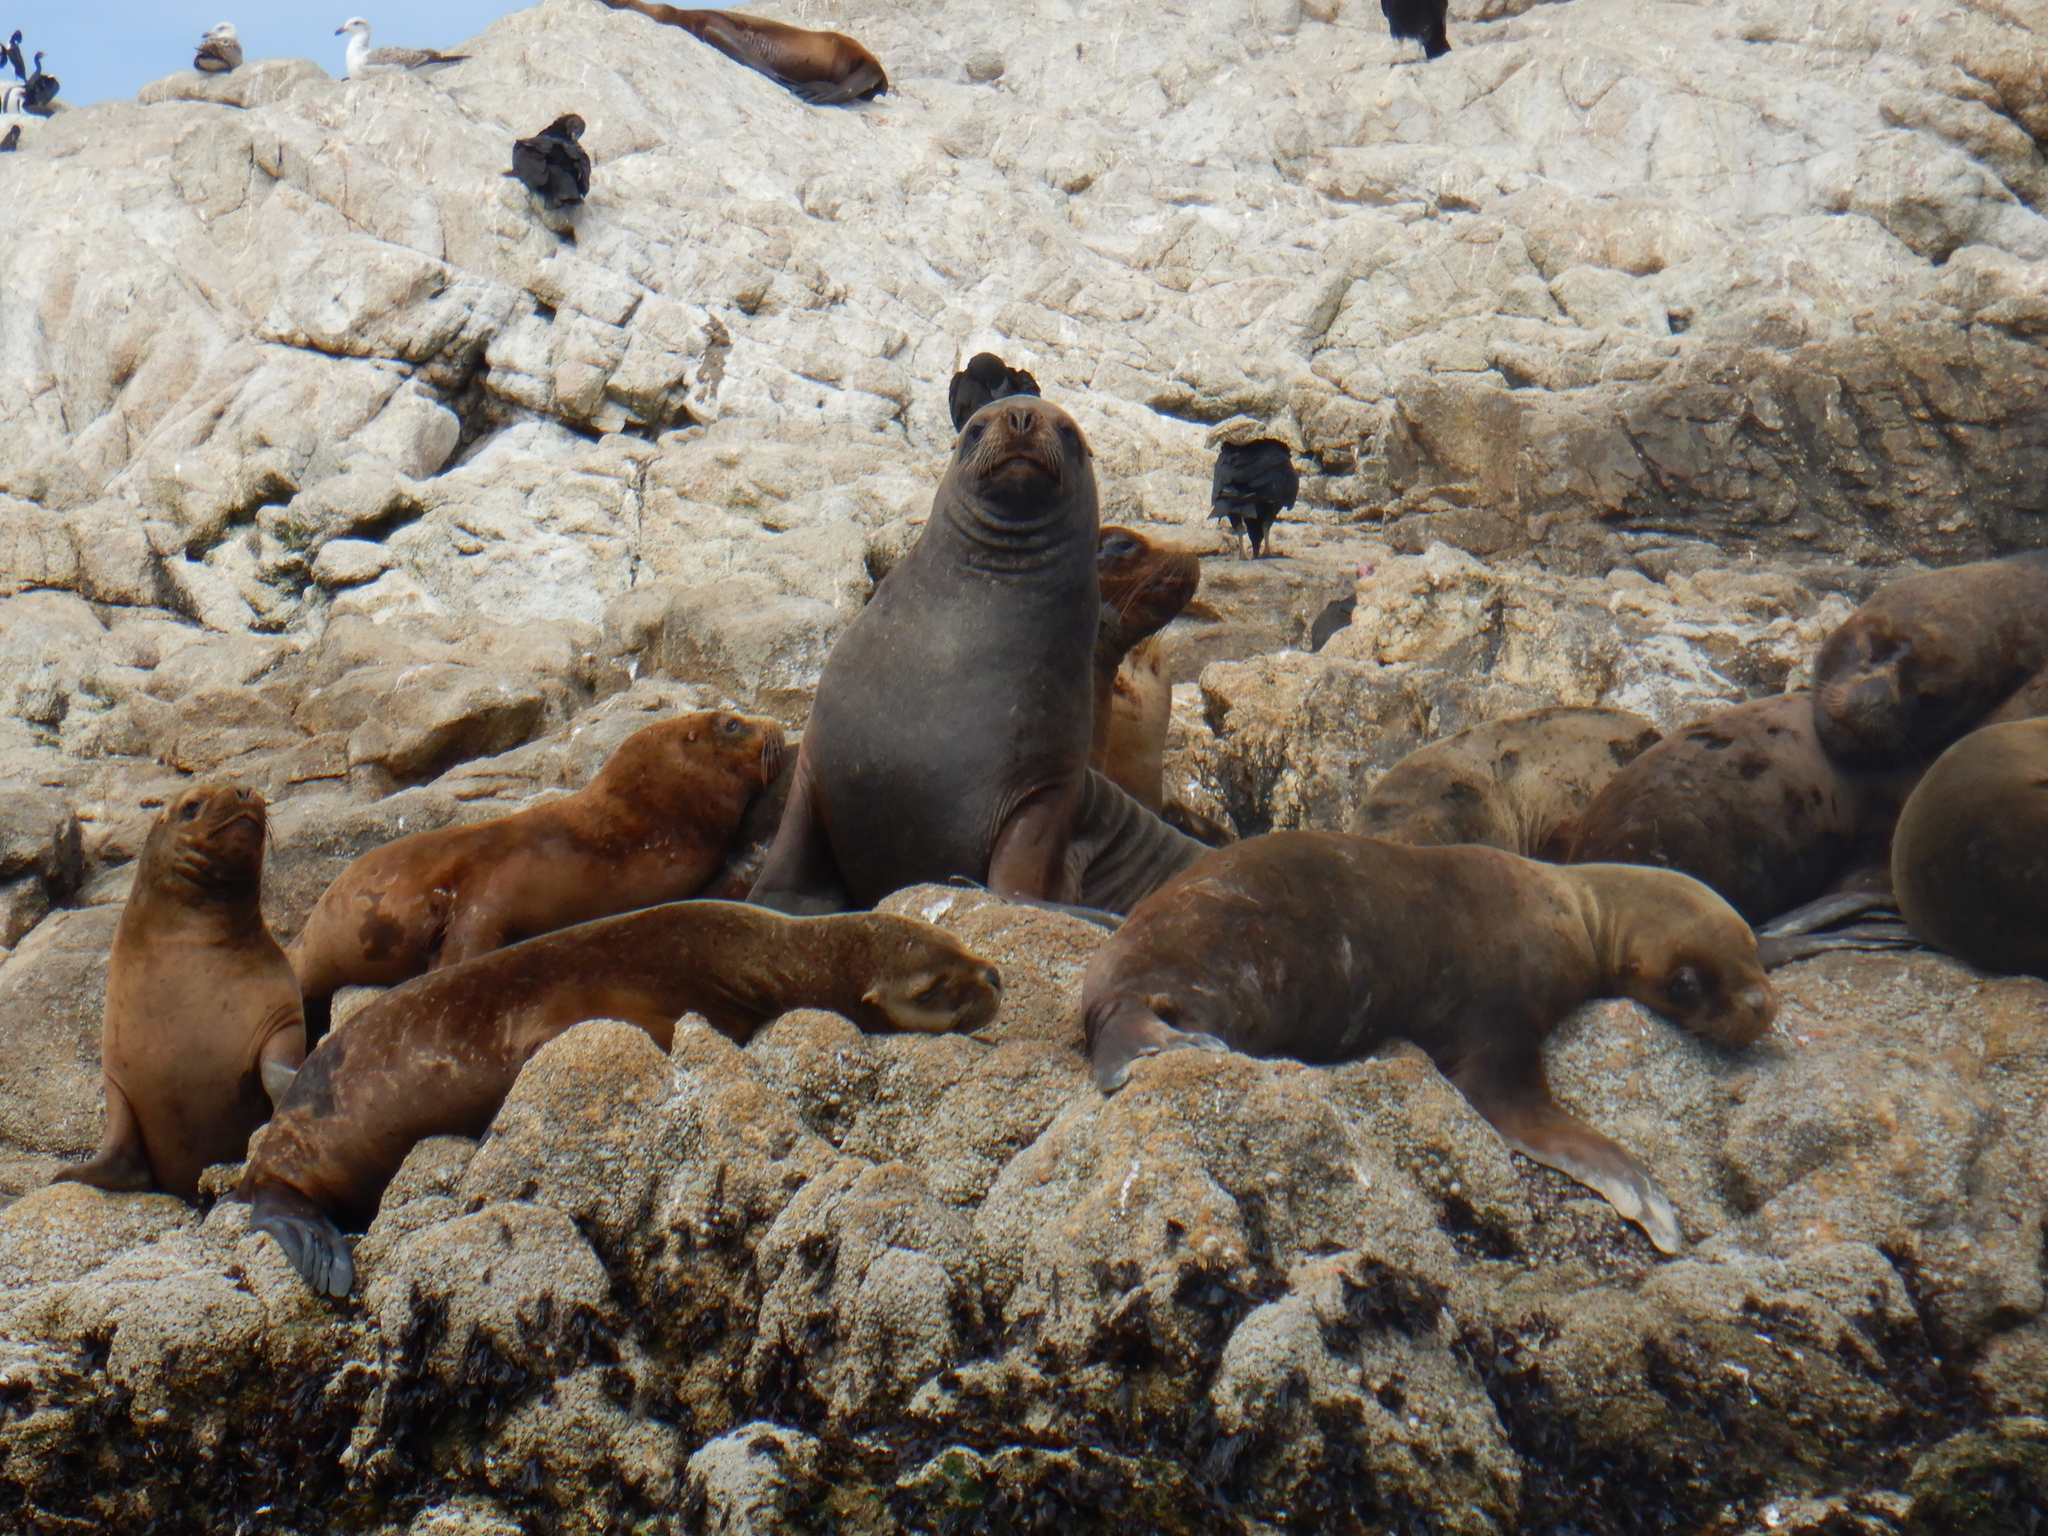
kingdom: Animalia
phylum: Chordata
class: Mammalia
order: Carnivora
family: Otariidae
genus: Otaria
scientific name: Otaria byronia
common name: South american sea lion
